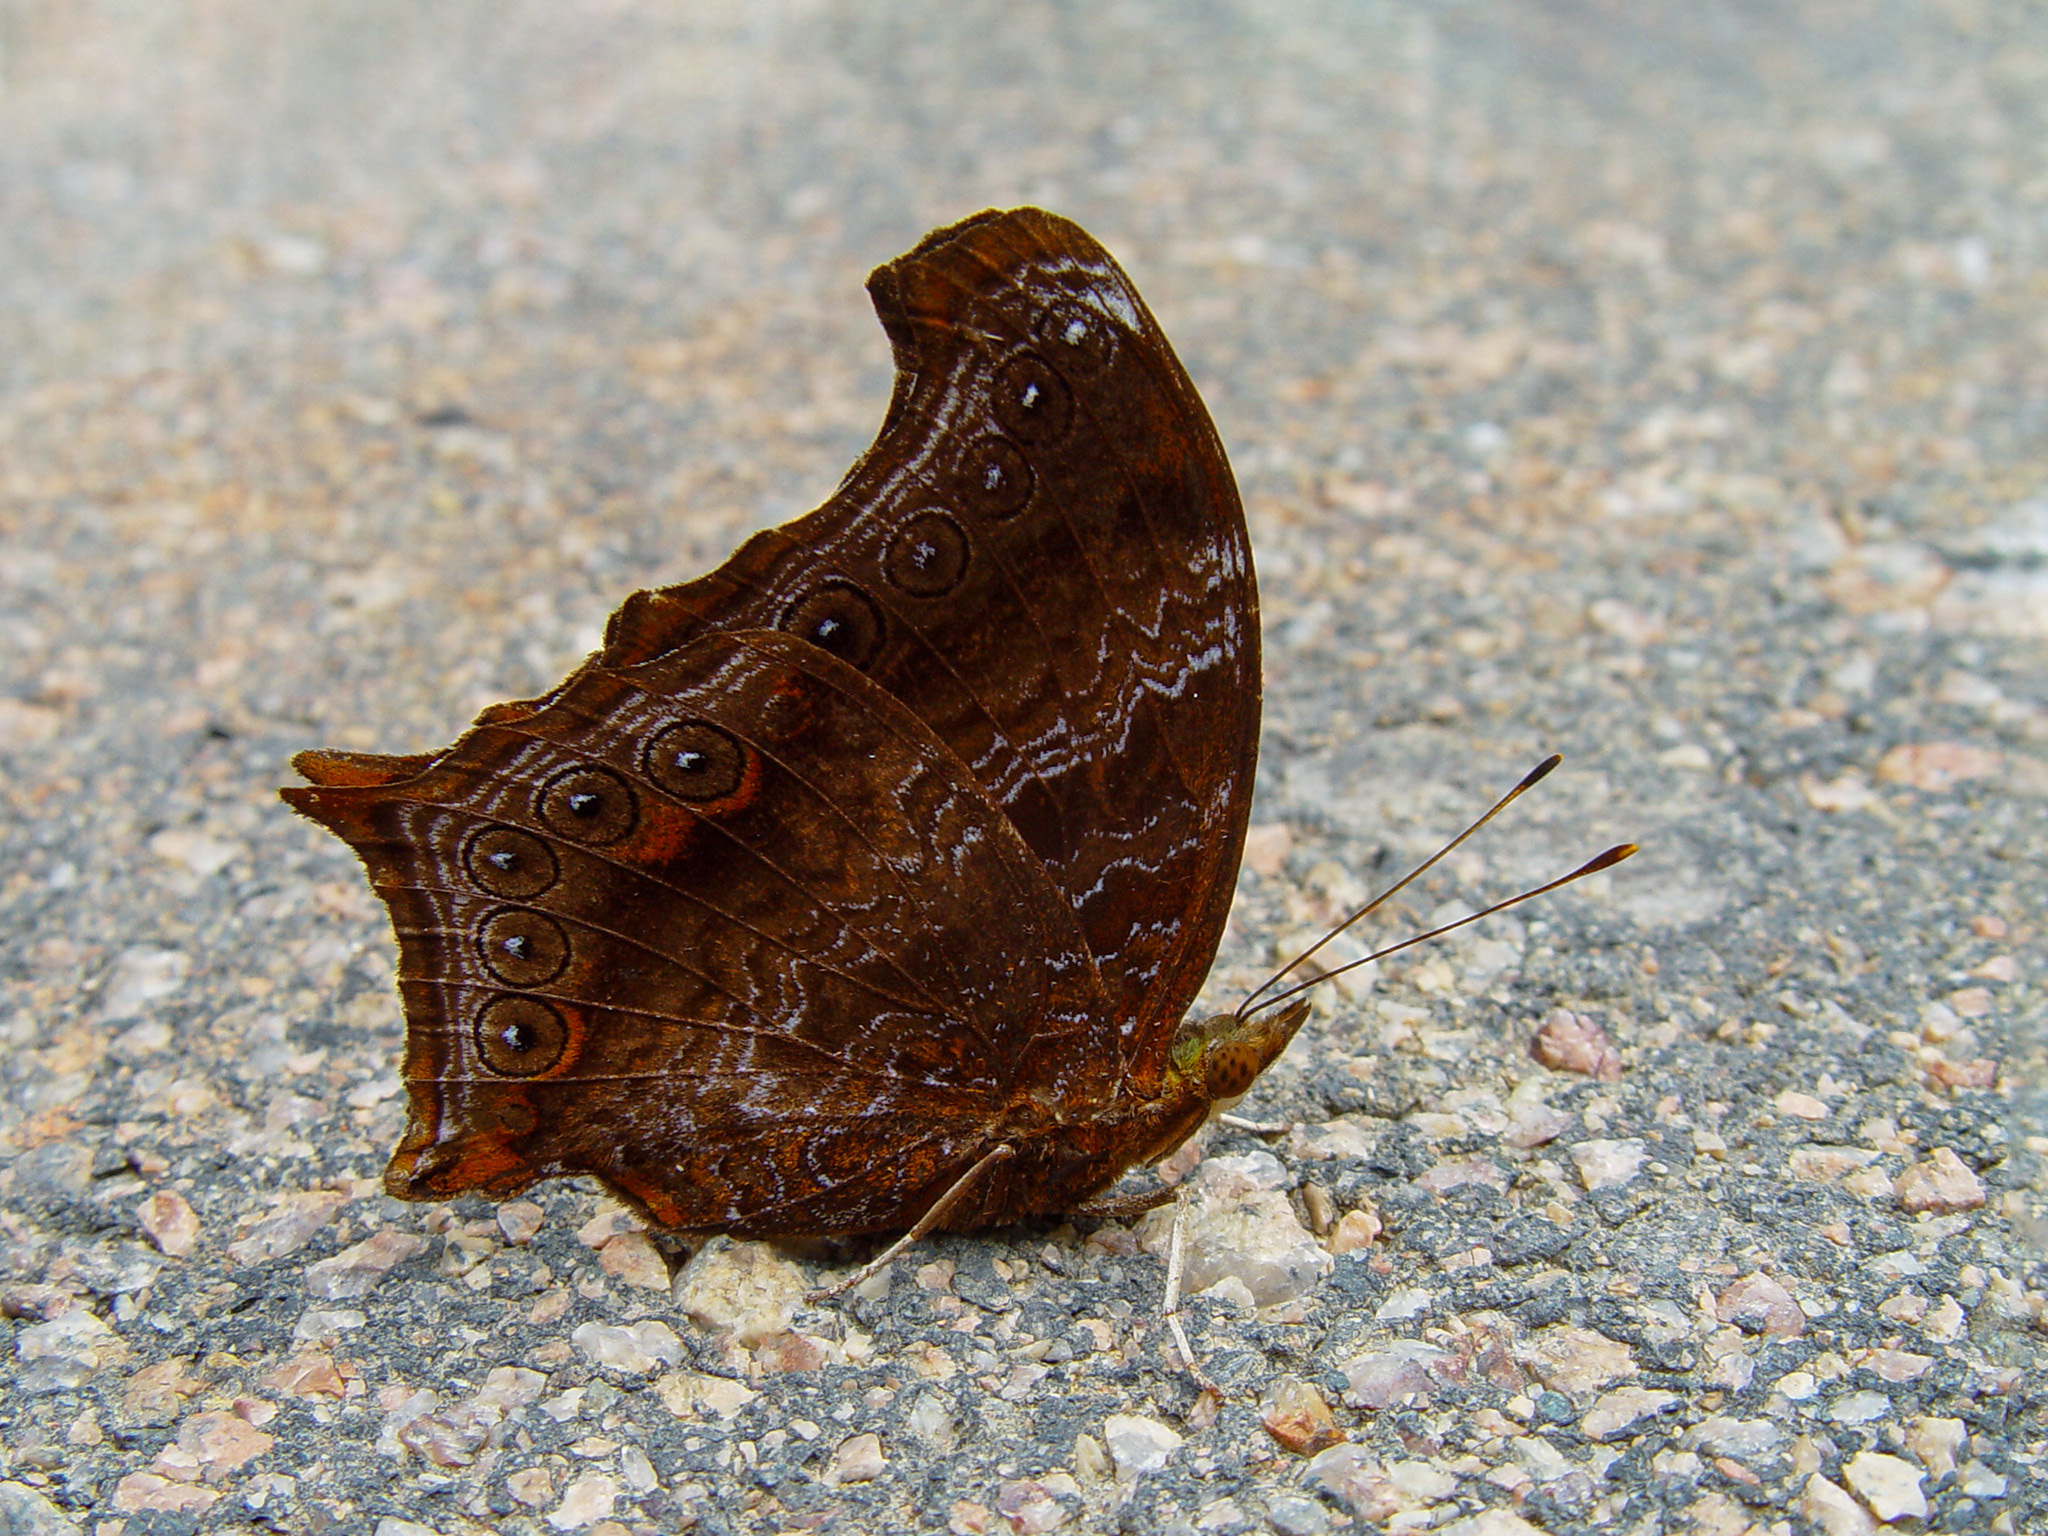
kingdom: Animalia
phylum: Arthropoda
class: Insecta
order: Lepidoptera
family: Nymphalidae
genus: Rhinopalpa
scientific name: Rhinopalpa polynice
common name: Wizard
